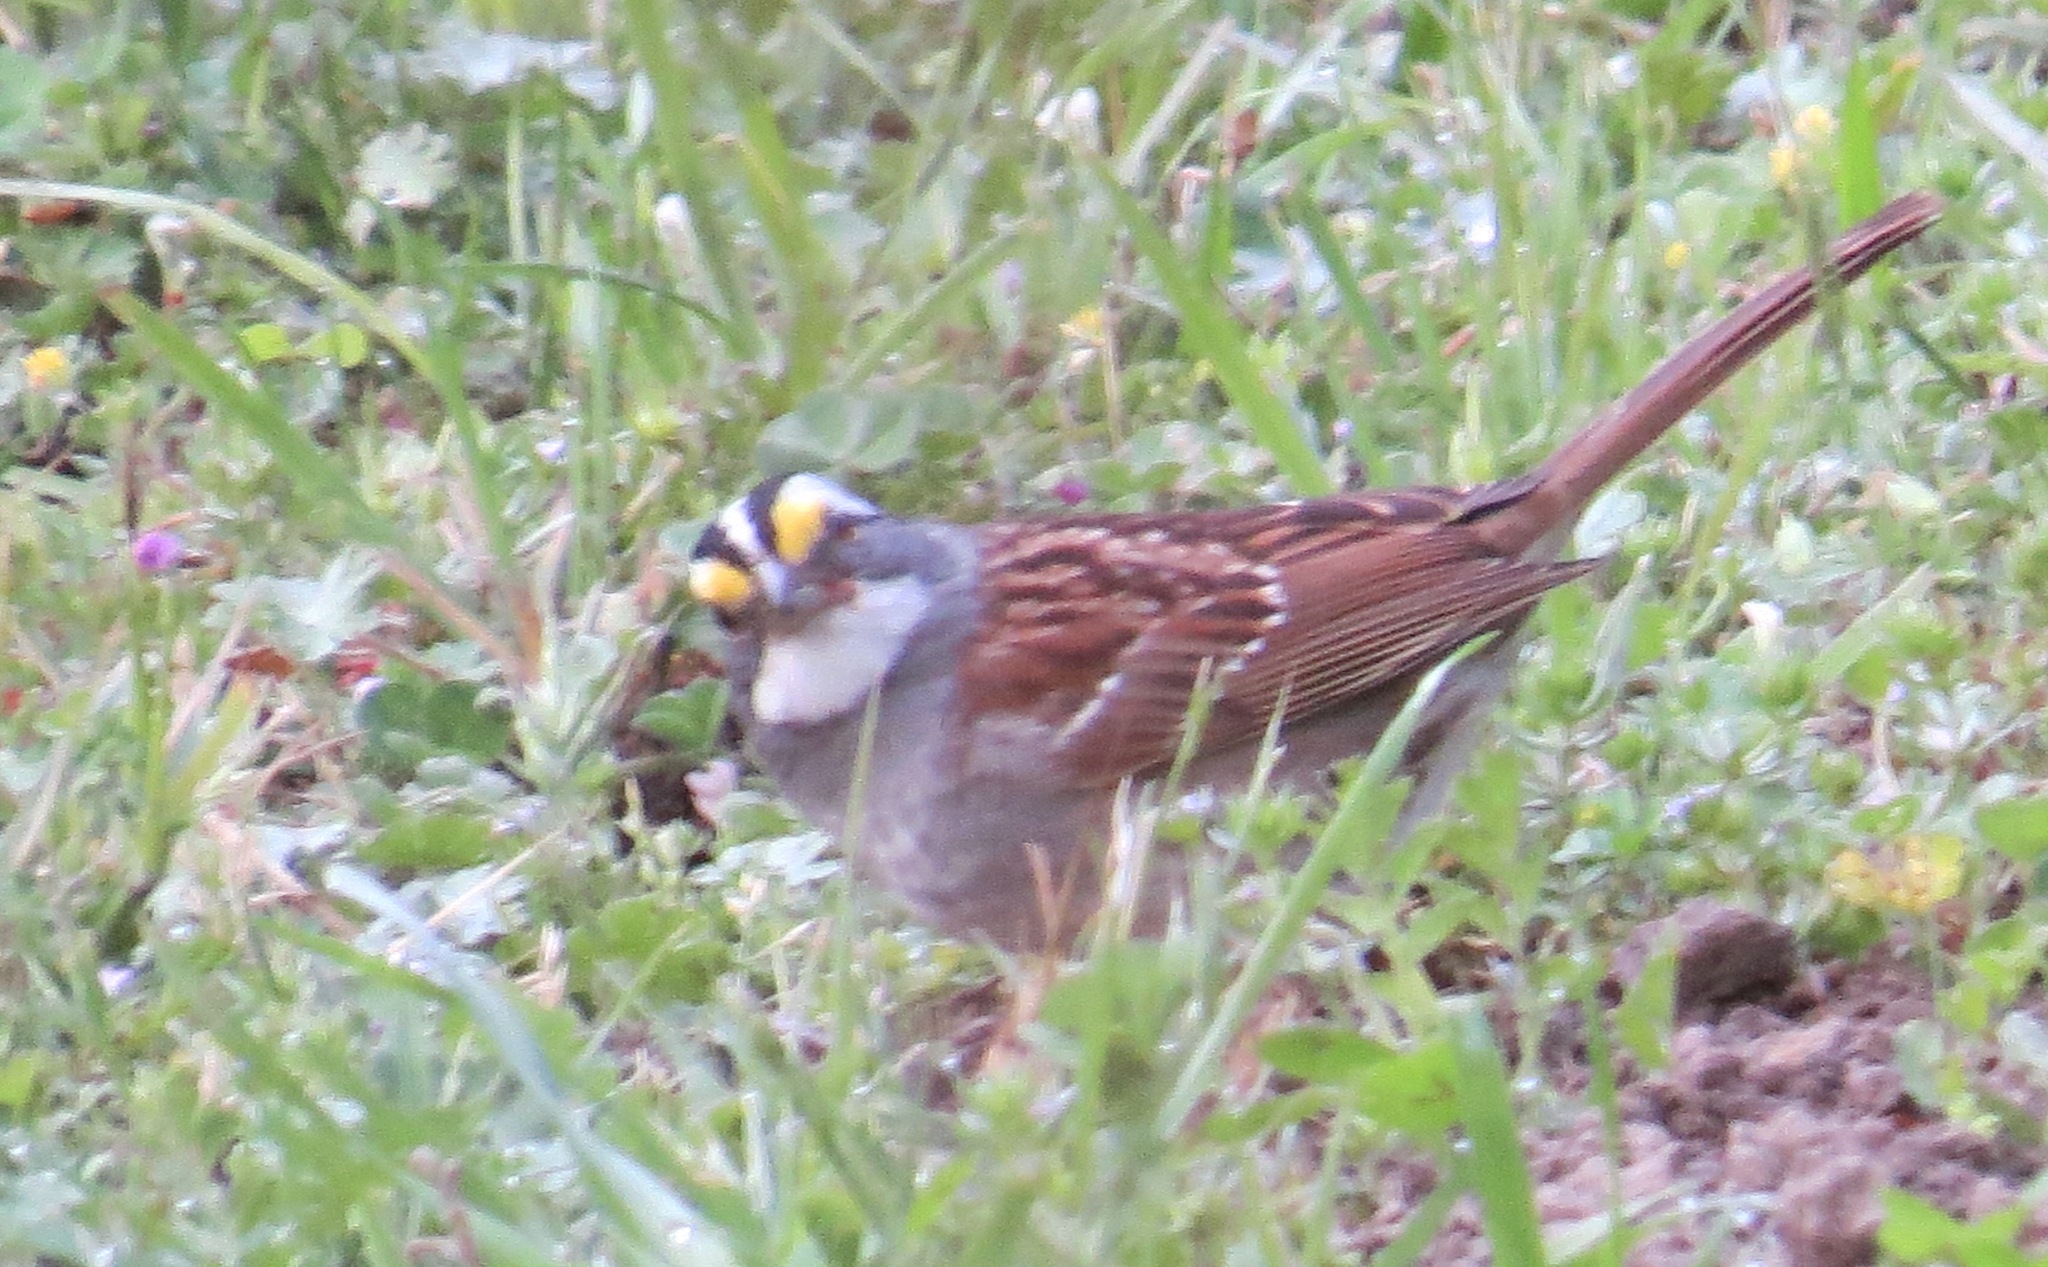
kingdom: Animalia
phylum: Chordata
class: Aves
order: Passeriformes
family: Passerellidae
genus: Zonotrichia
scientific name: Zonotrichia albicollis
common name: White-throated sparrow
